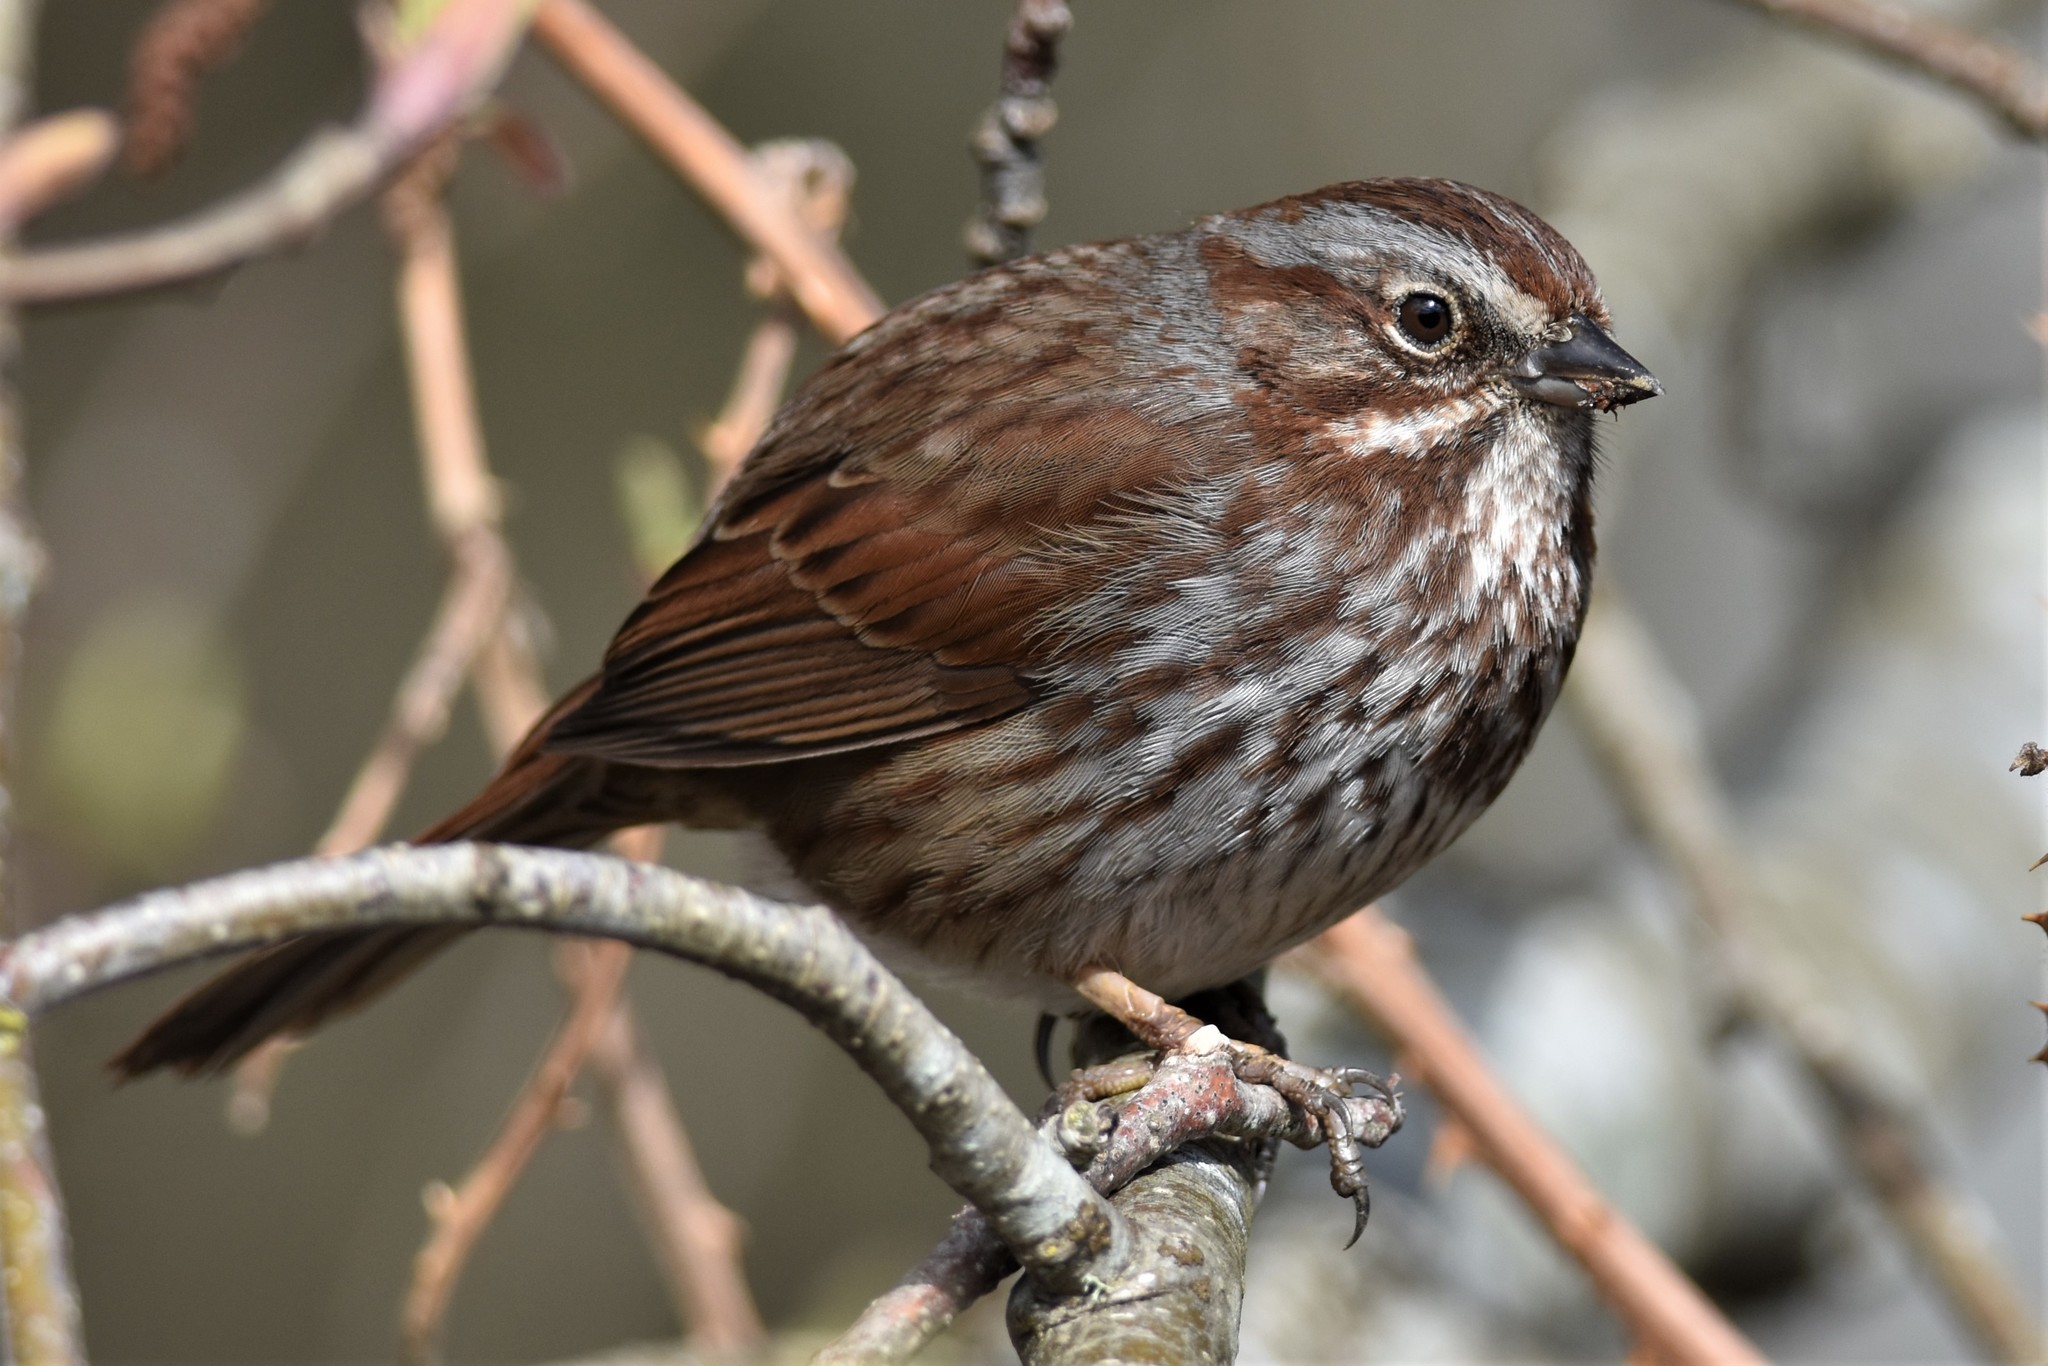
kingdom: Animalia
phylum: Chordata
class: Aves
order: Passeriformes
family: Passerellidae
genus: Melospiza
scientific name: Melospiza melodia
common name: Song sparrow
